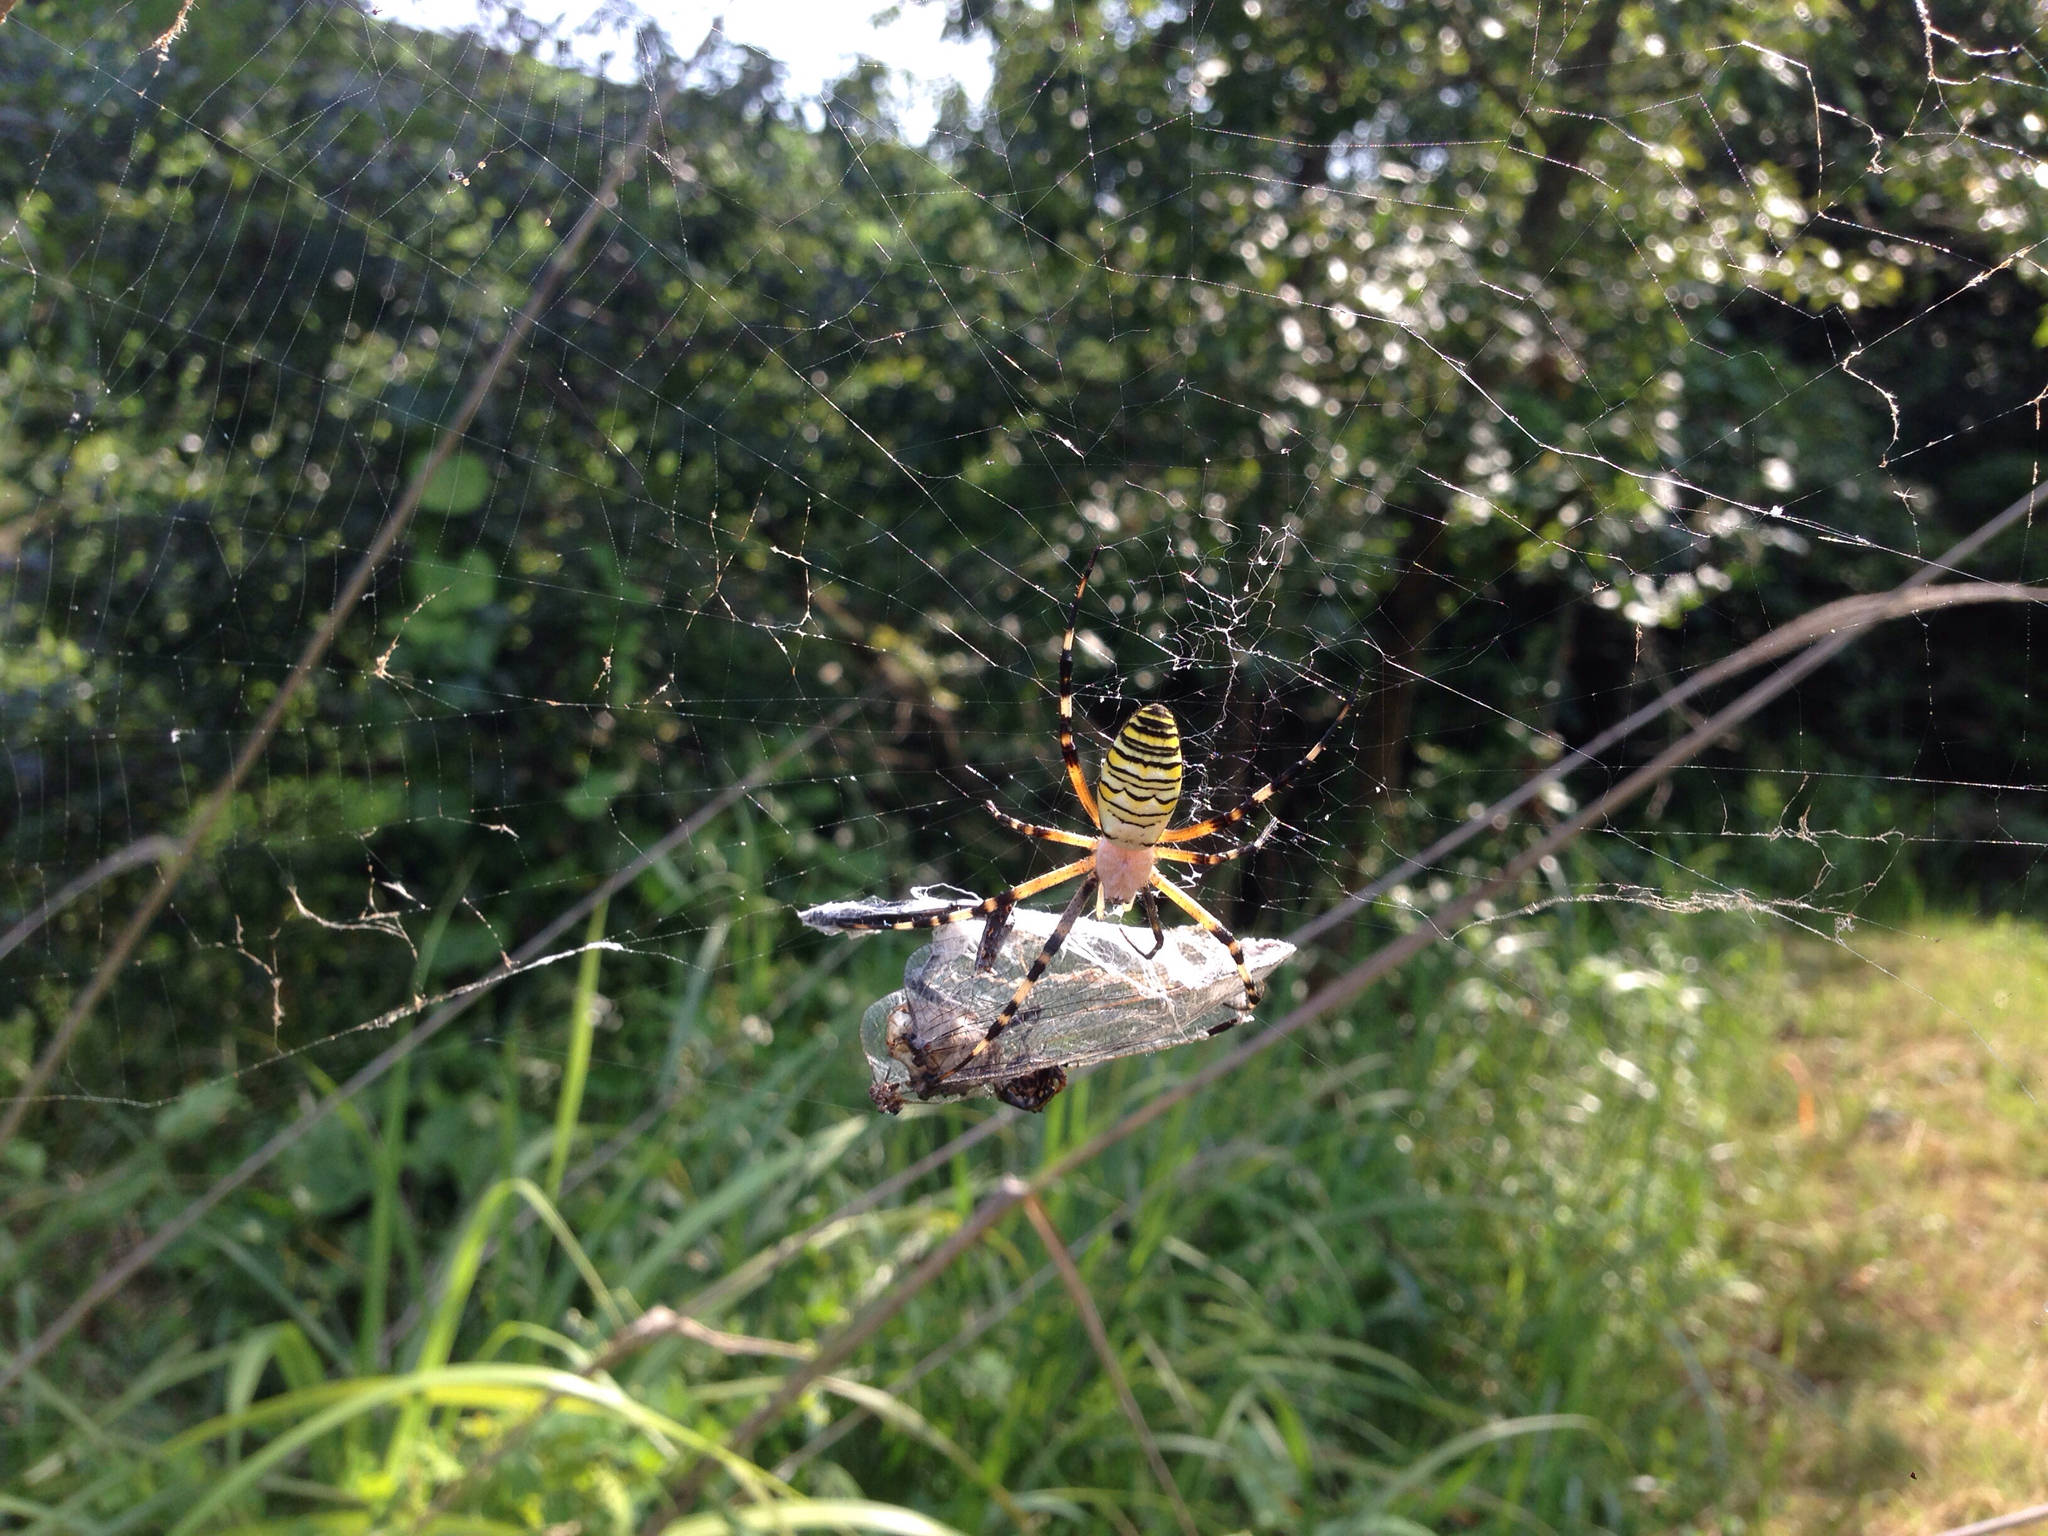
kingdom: Animalia
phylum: Arthropoda
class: Arachnida
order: Araneae
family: Araneidae
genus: Argiope
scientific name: Argiope bruennichi
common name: Wasp spider
